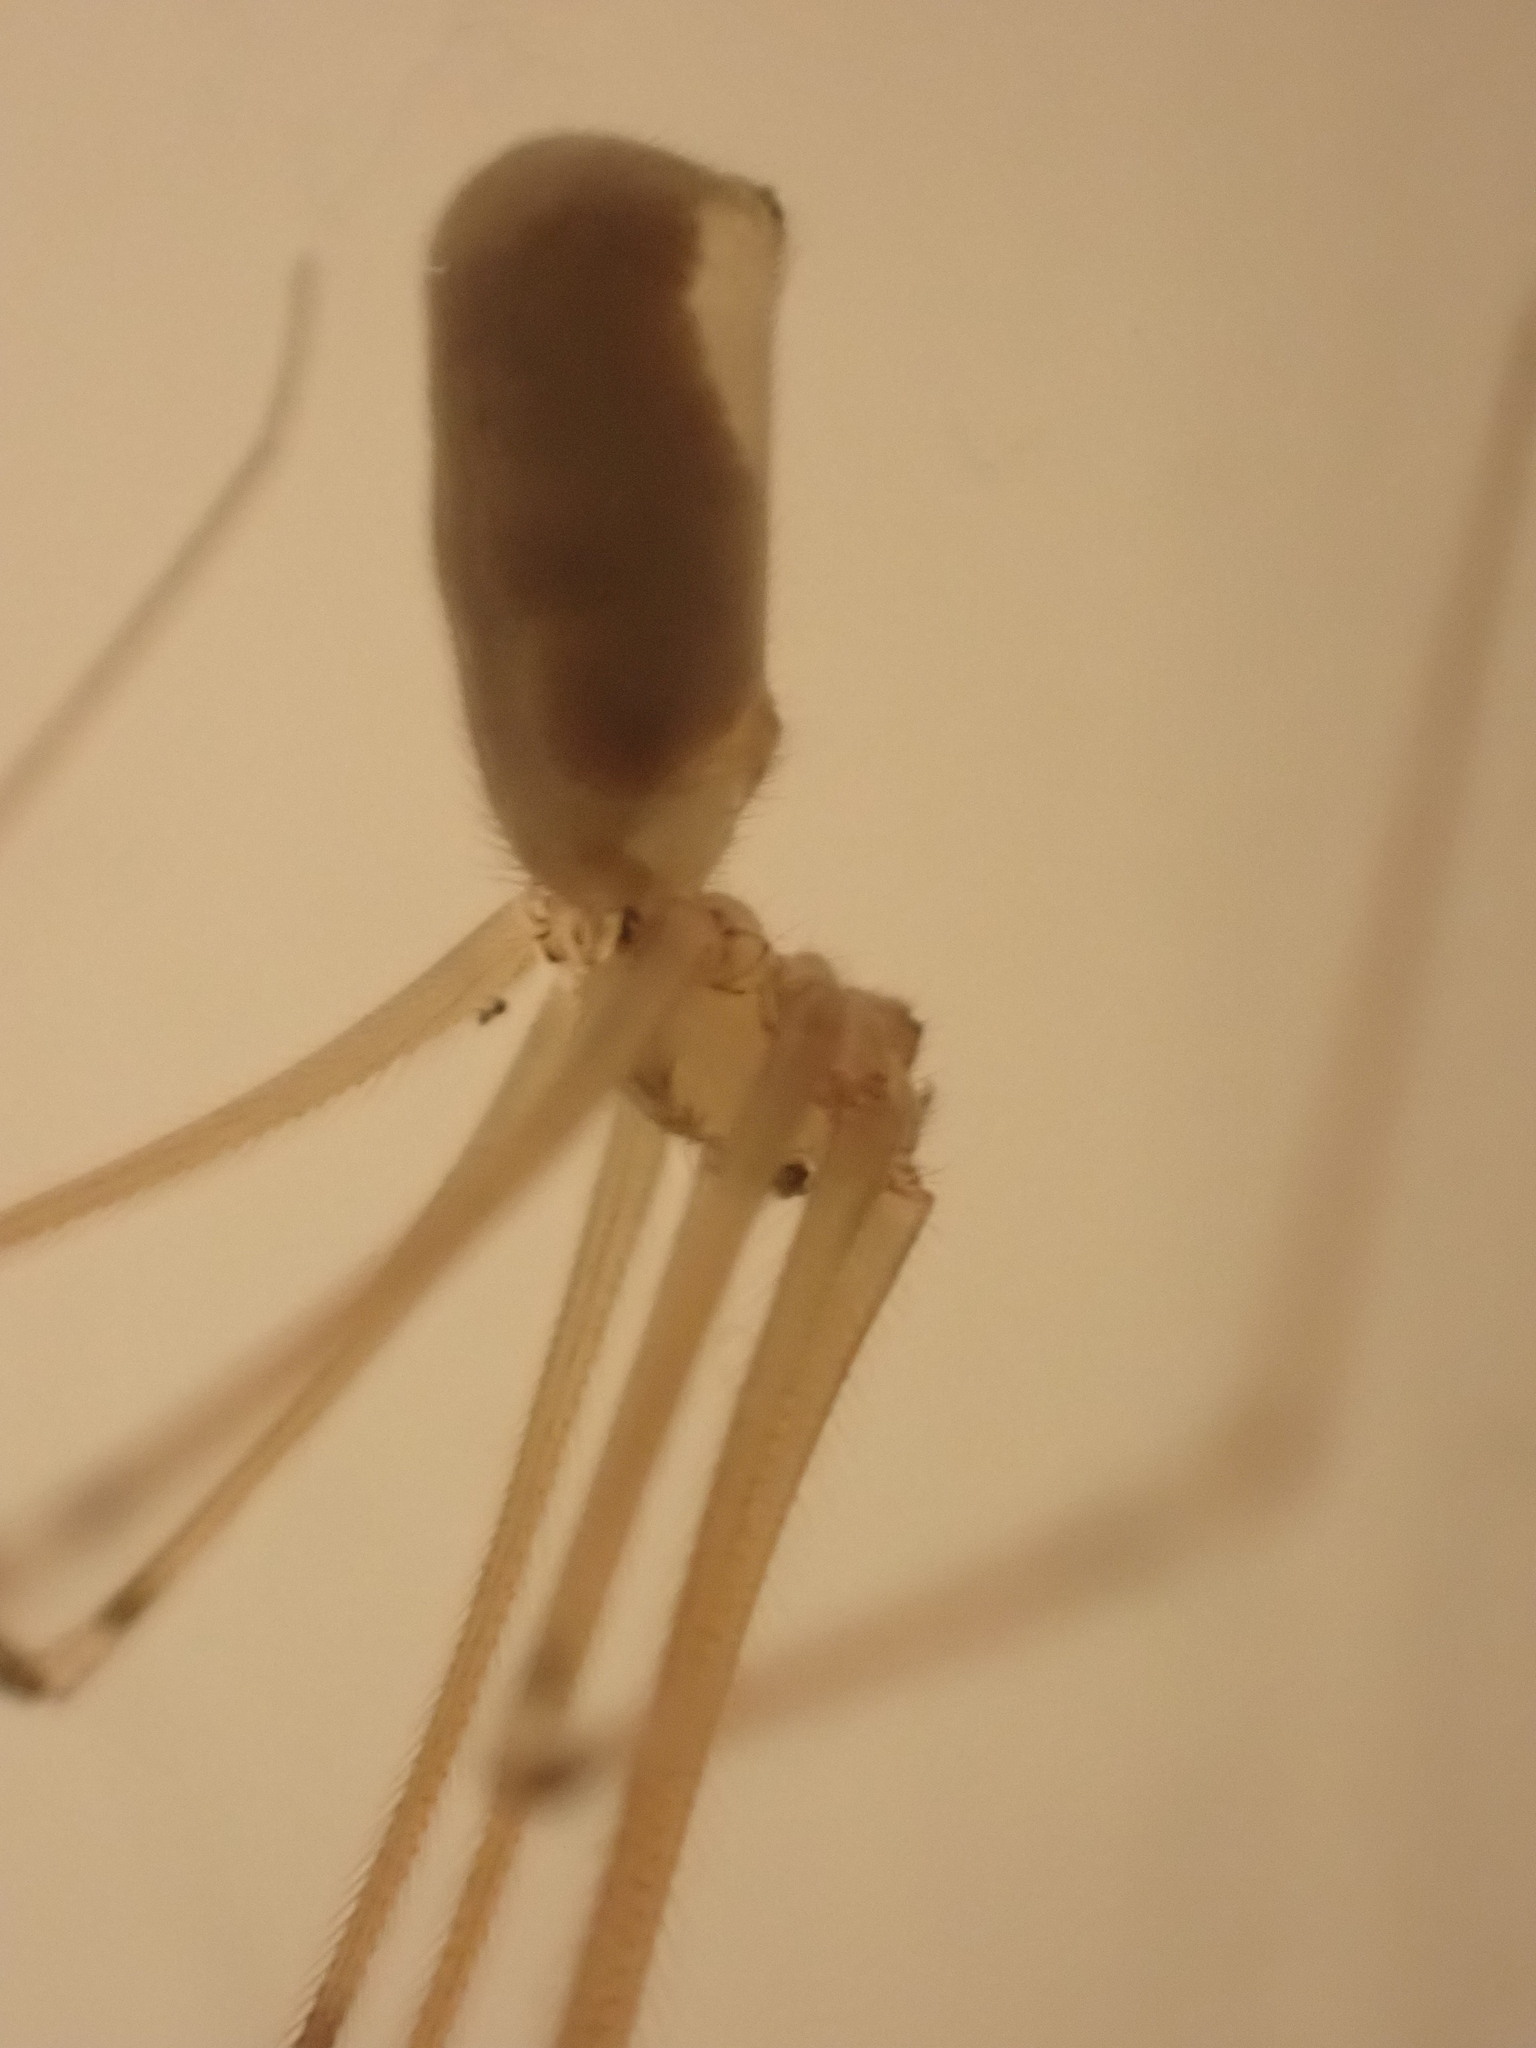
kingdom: Animalia
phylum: Arthropoda
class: Arachnida
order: Araneae
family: Pholcidae
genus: Pholcus
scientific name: Pholcus phalangioides
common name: Longbodied cellar spider
